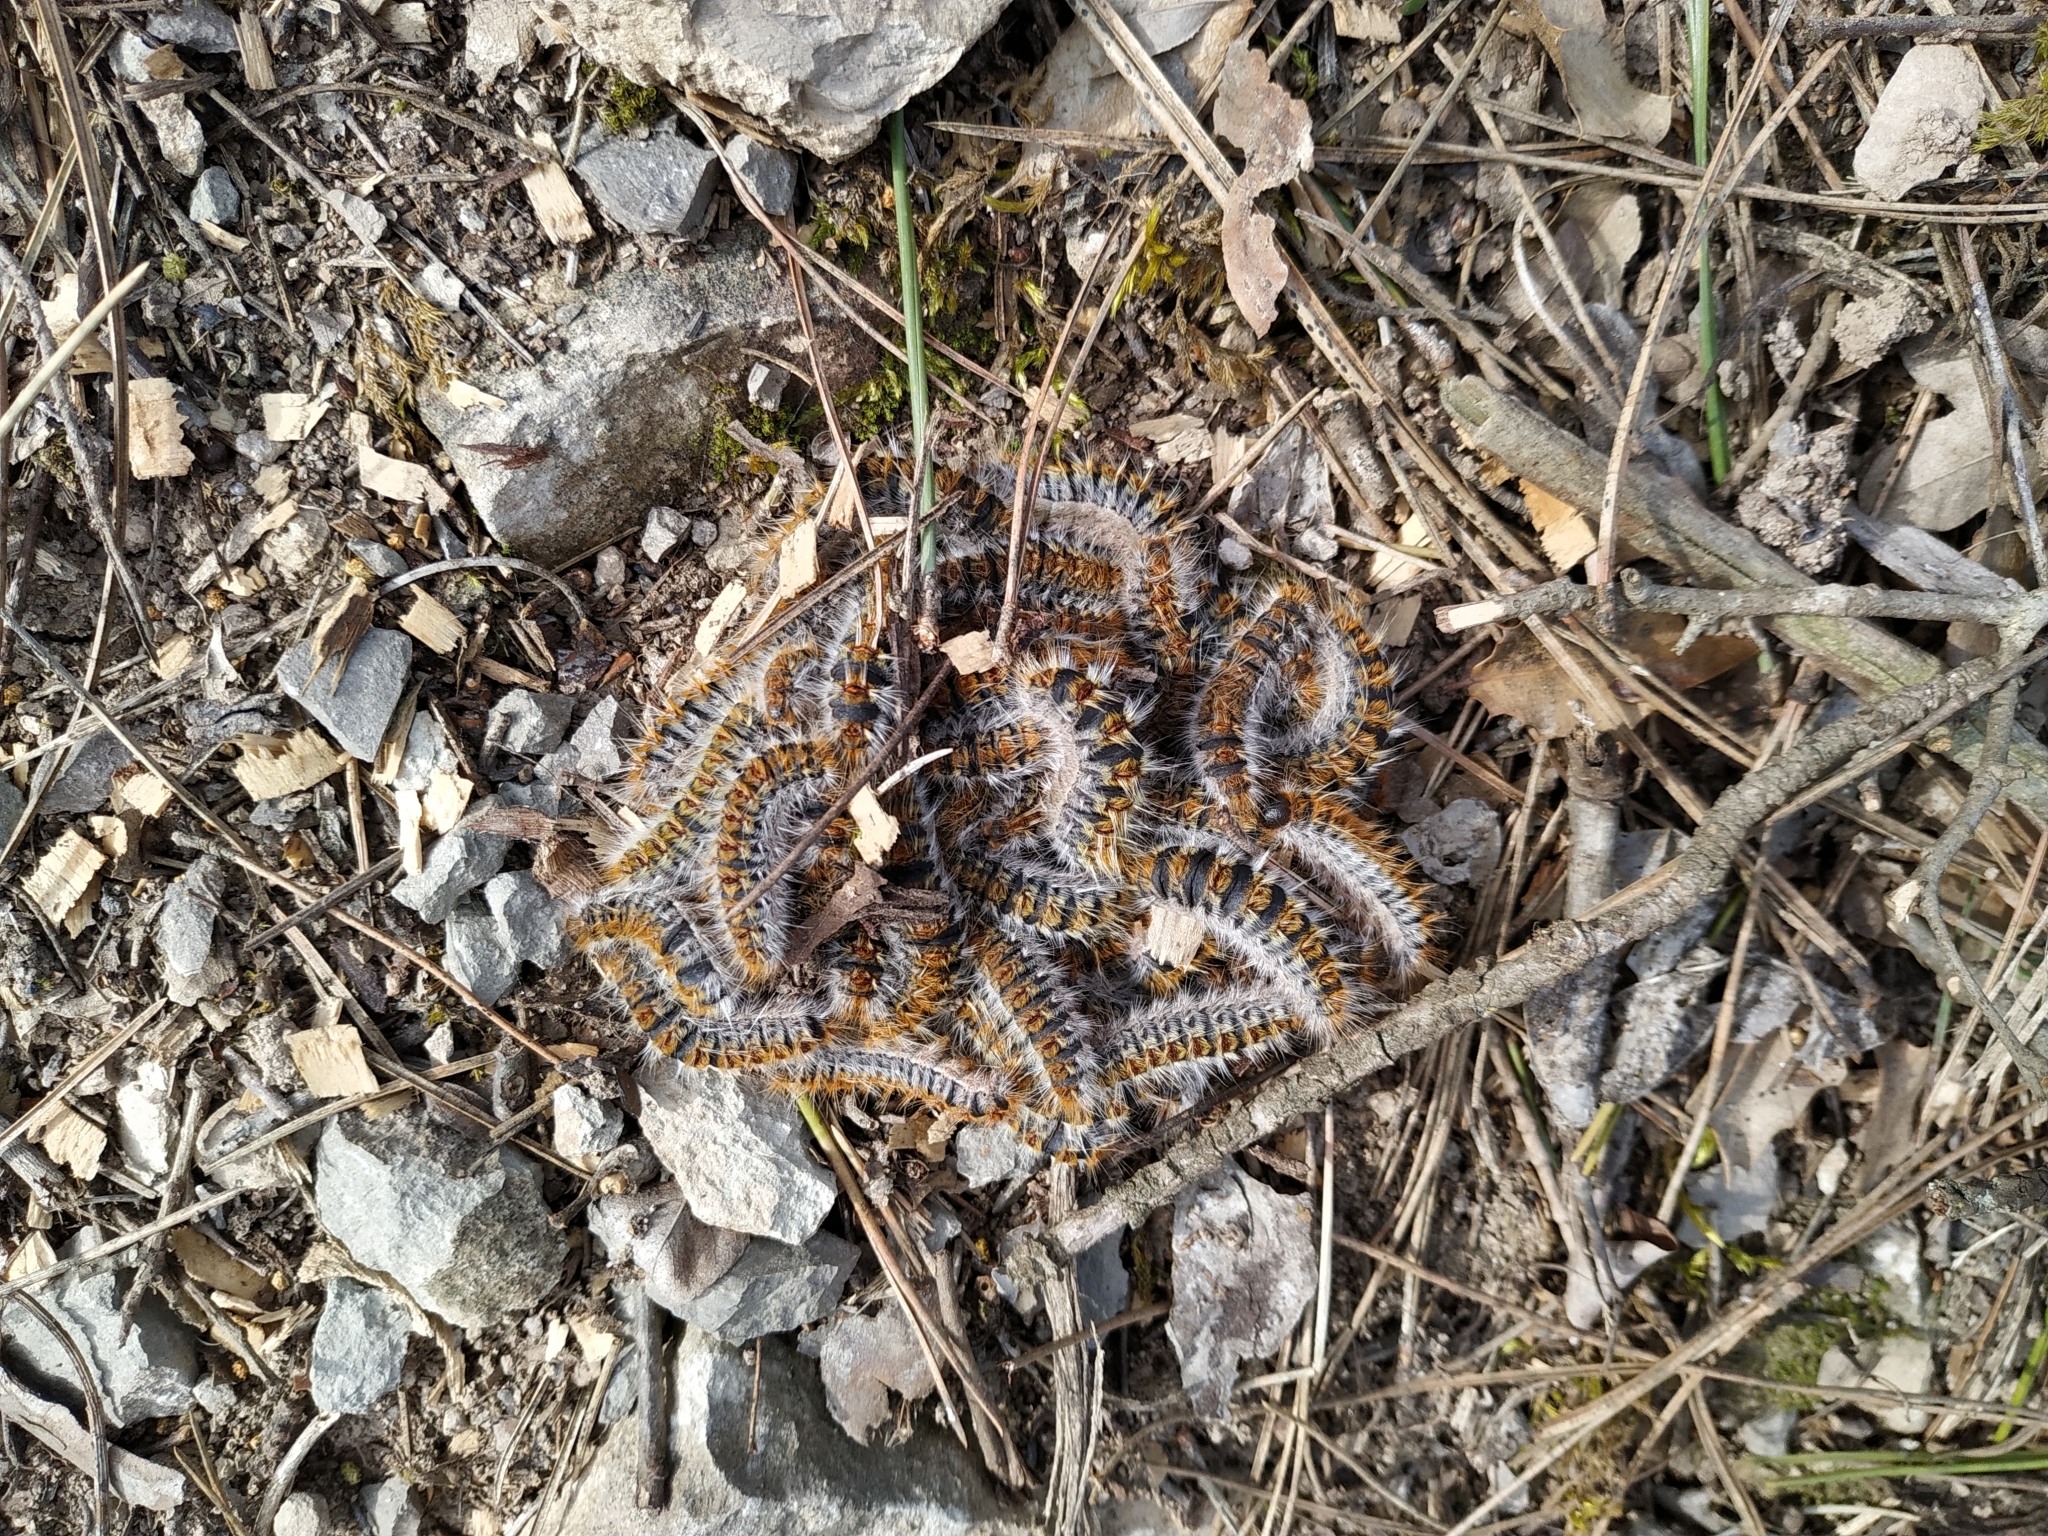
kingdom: Animalia
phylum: Arthropoda
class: Insecta
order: Lepidoptera
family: Notodontidae
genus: Thaumetopoea
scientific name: Thaumetopoea pityocampa
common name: Pine processionary
